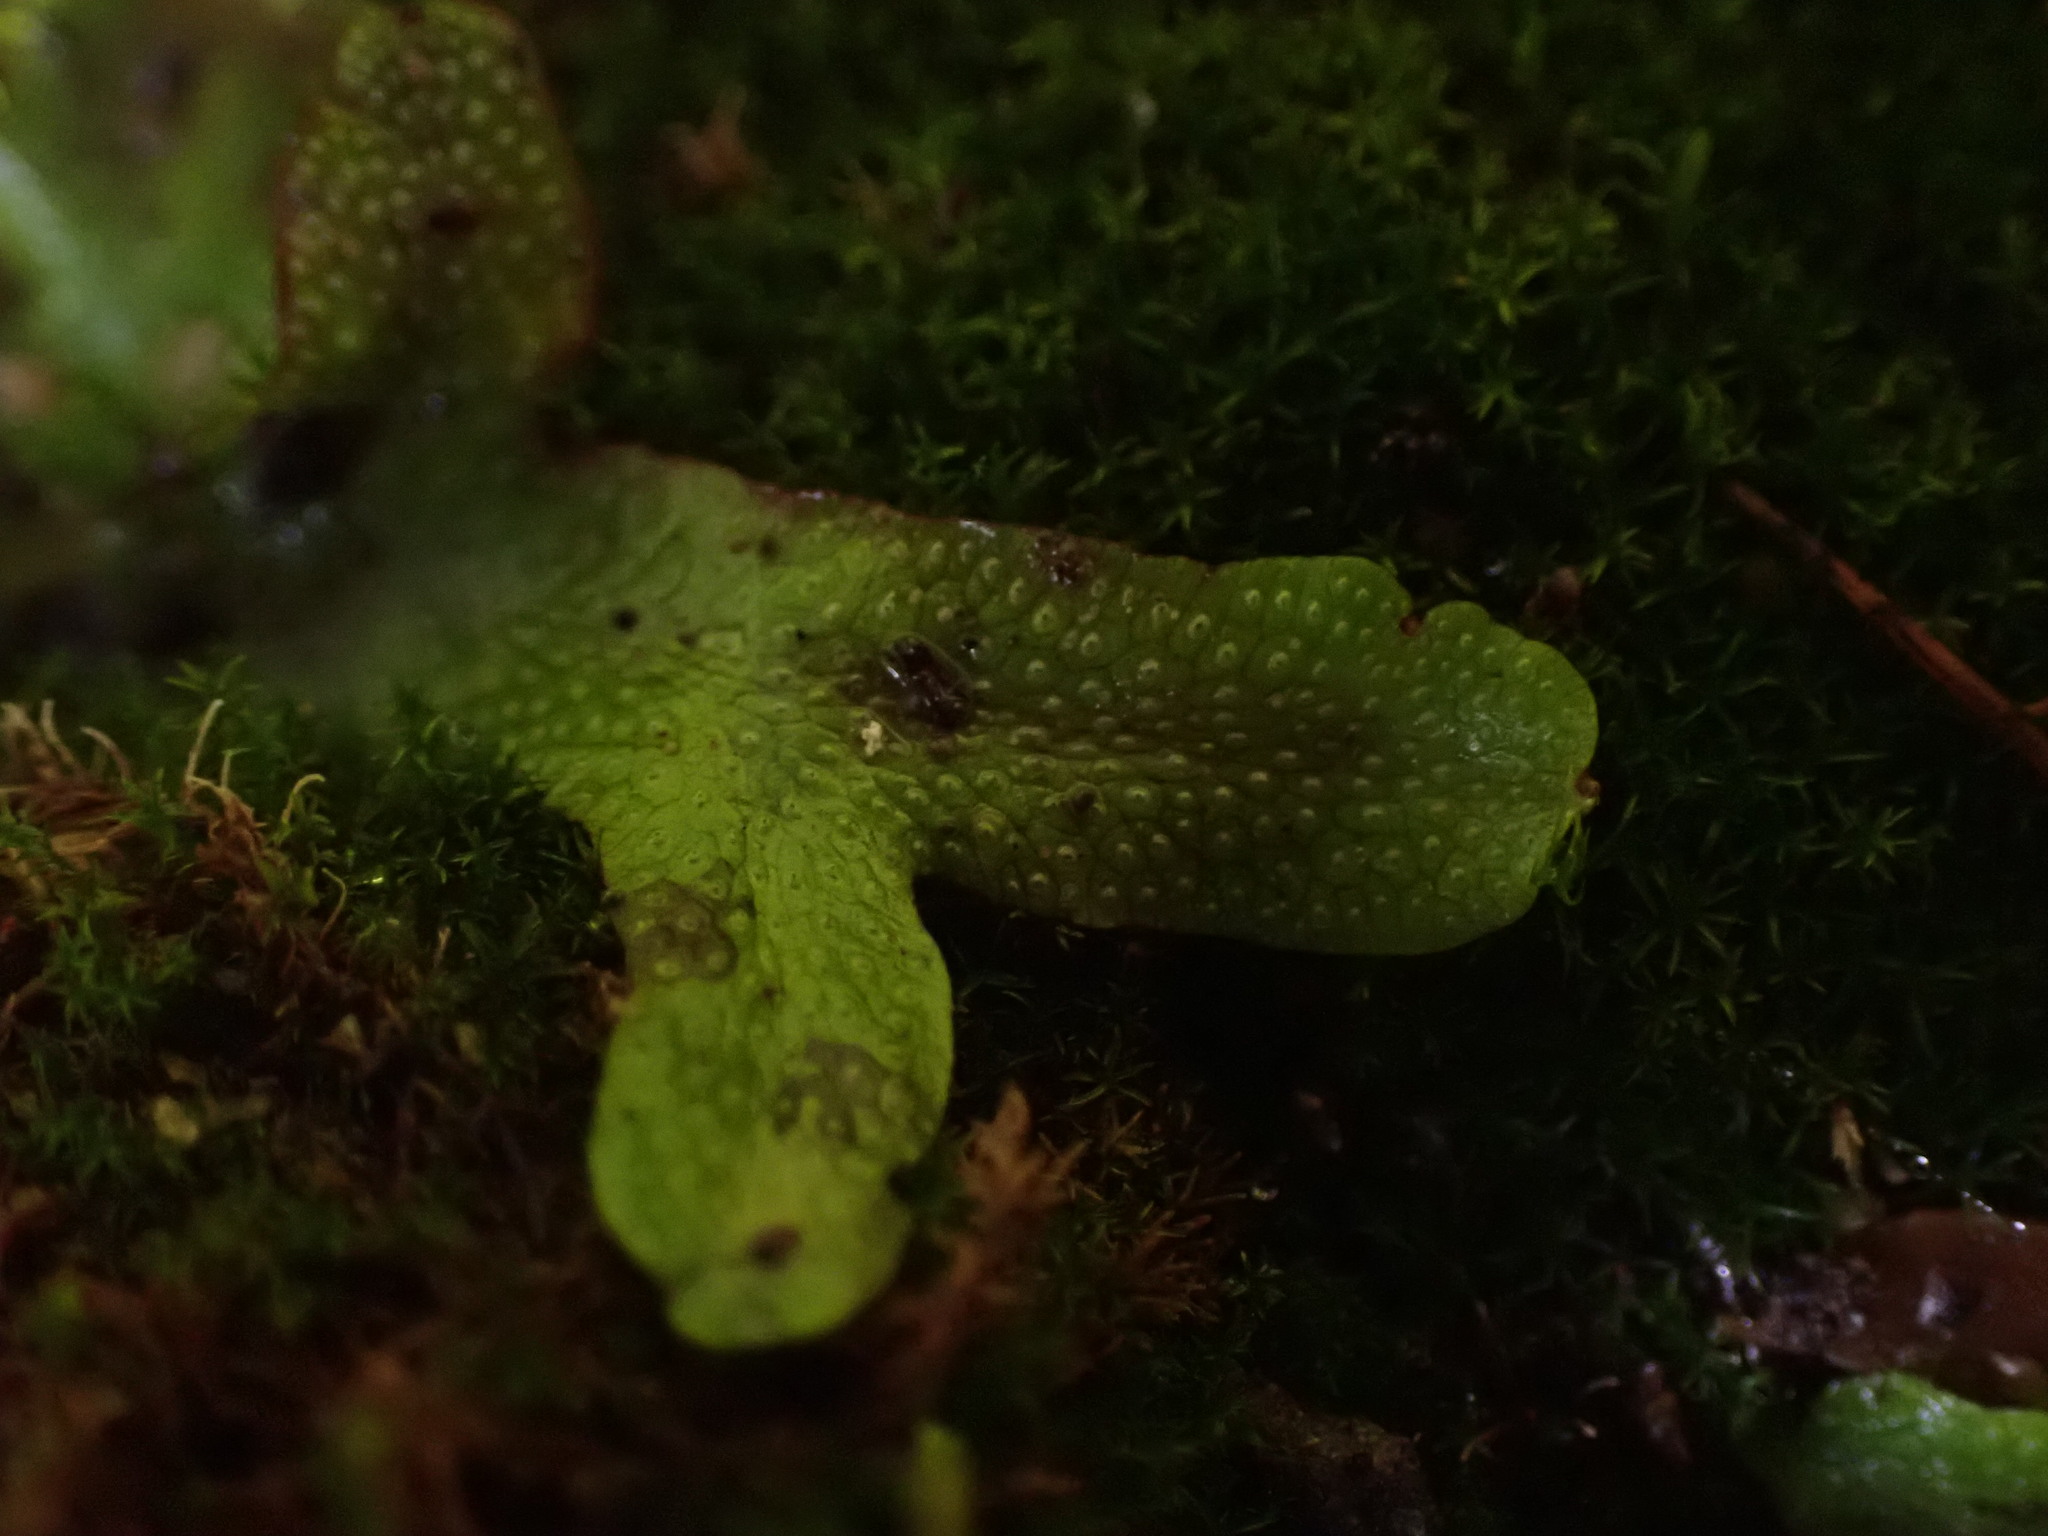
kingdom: Plantae
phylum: Marchantiophyta
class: Marchantiopsida
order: Marchantiales
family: Conocephalaceae
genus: Conocephalum
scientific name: Conocephalum salebrosum
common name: Cat-tongue liverwort
